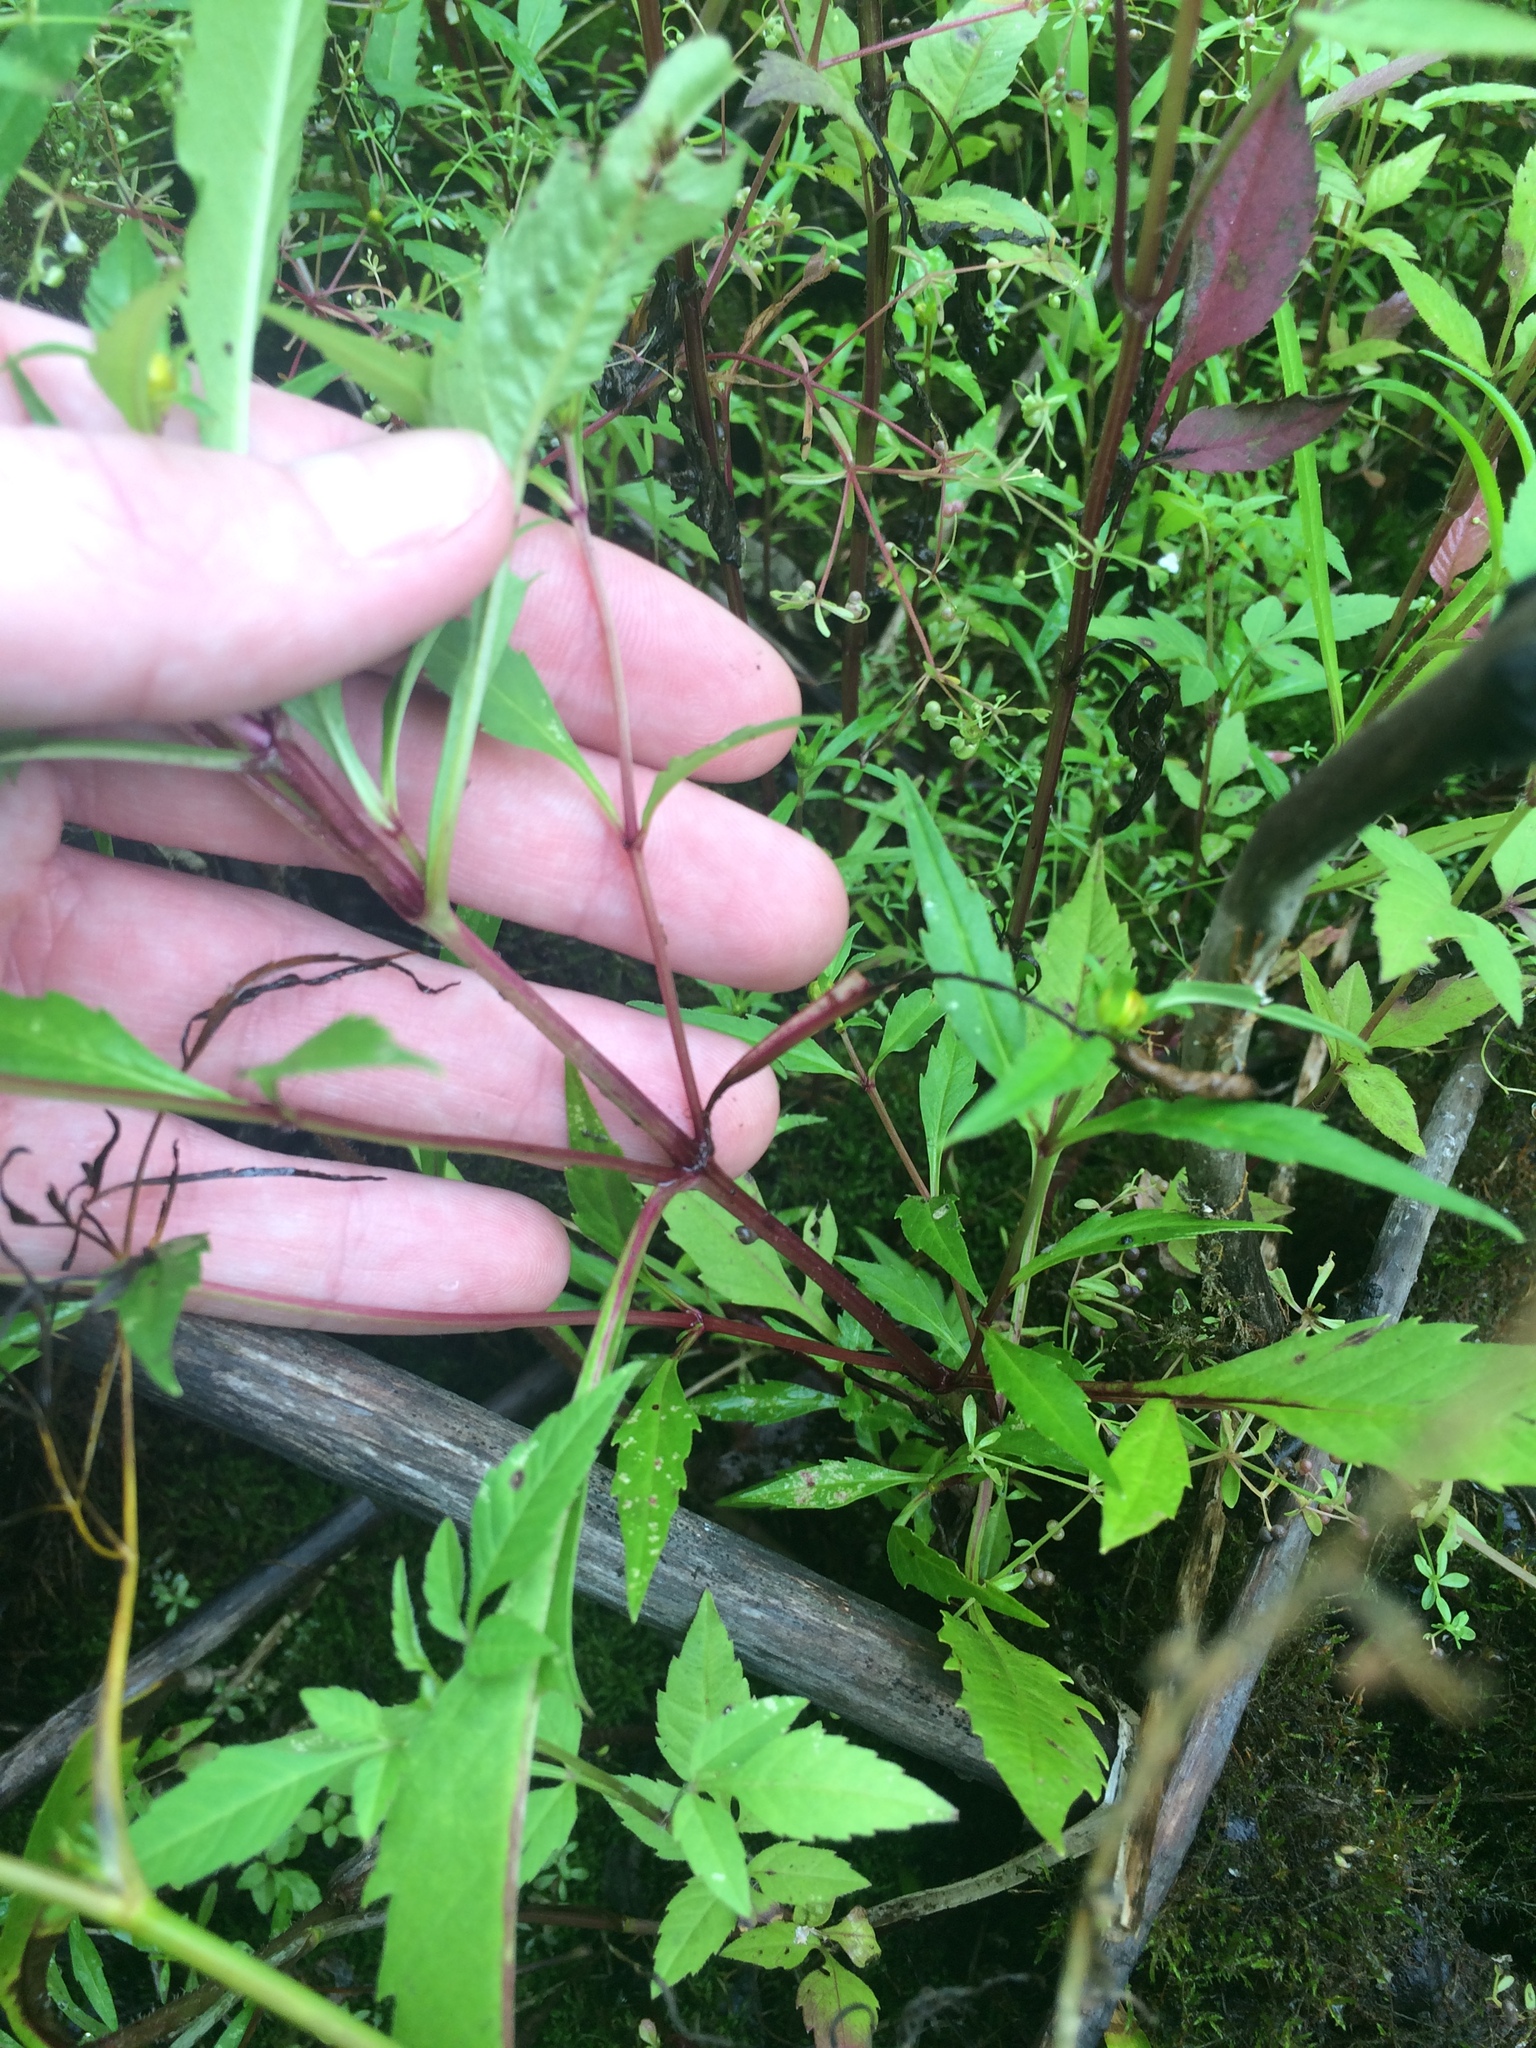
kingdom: Plantae
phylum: Tracheophyta
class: Magnoliopsida
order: Asterales
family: Asteraceae
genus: Bidens
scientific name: Bidens connata
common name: London bur-marigold
